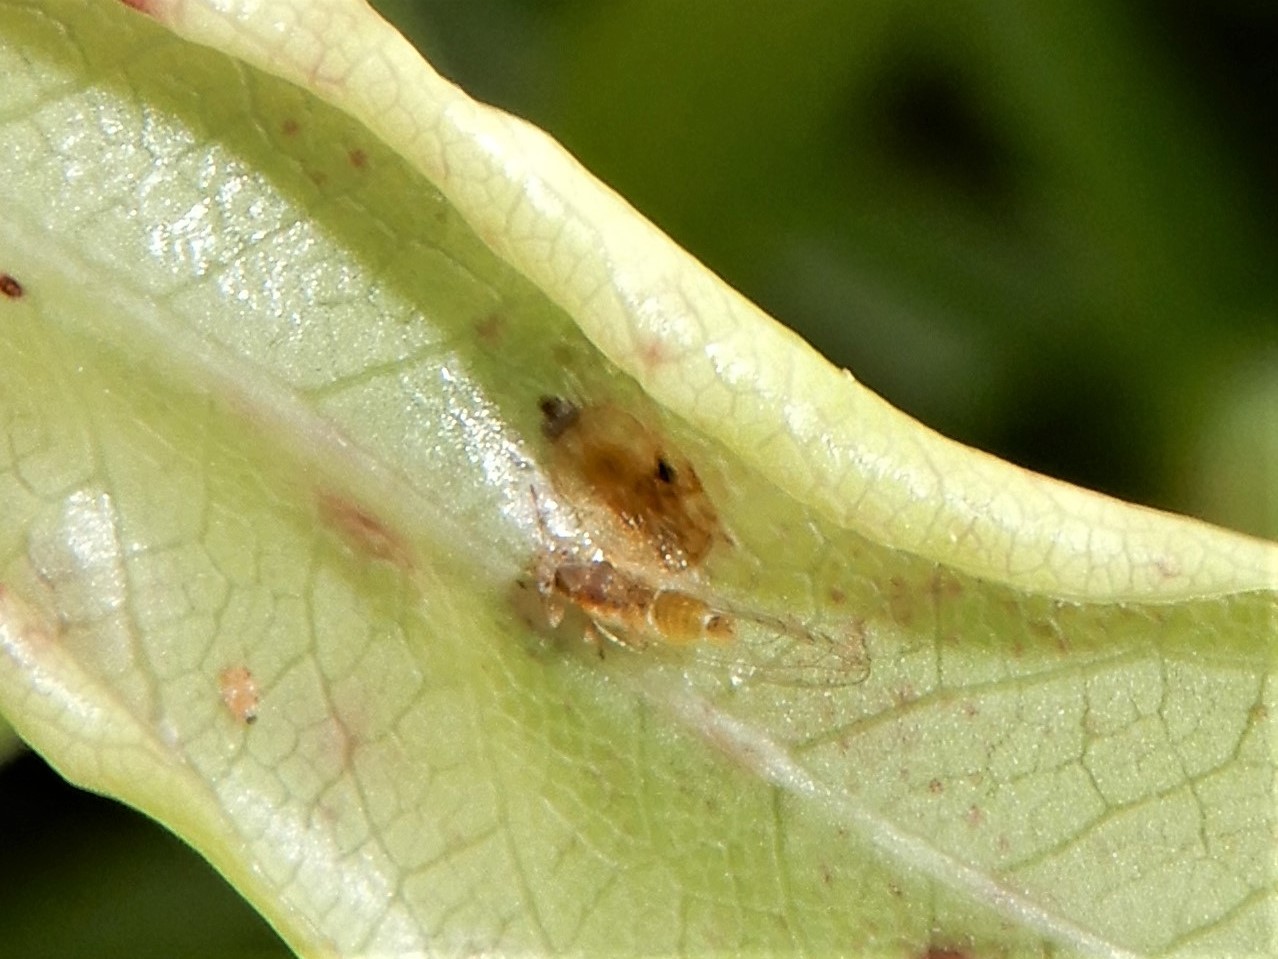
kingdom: Animalia
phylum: Arthropoda
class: Insecta
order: Hemiptera
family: Triozidae
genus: Powellia
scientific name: Powellia vitreoradiata
